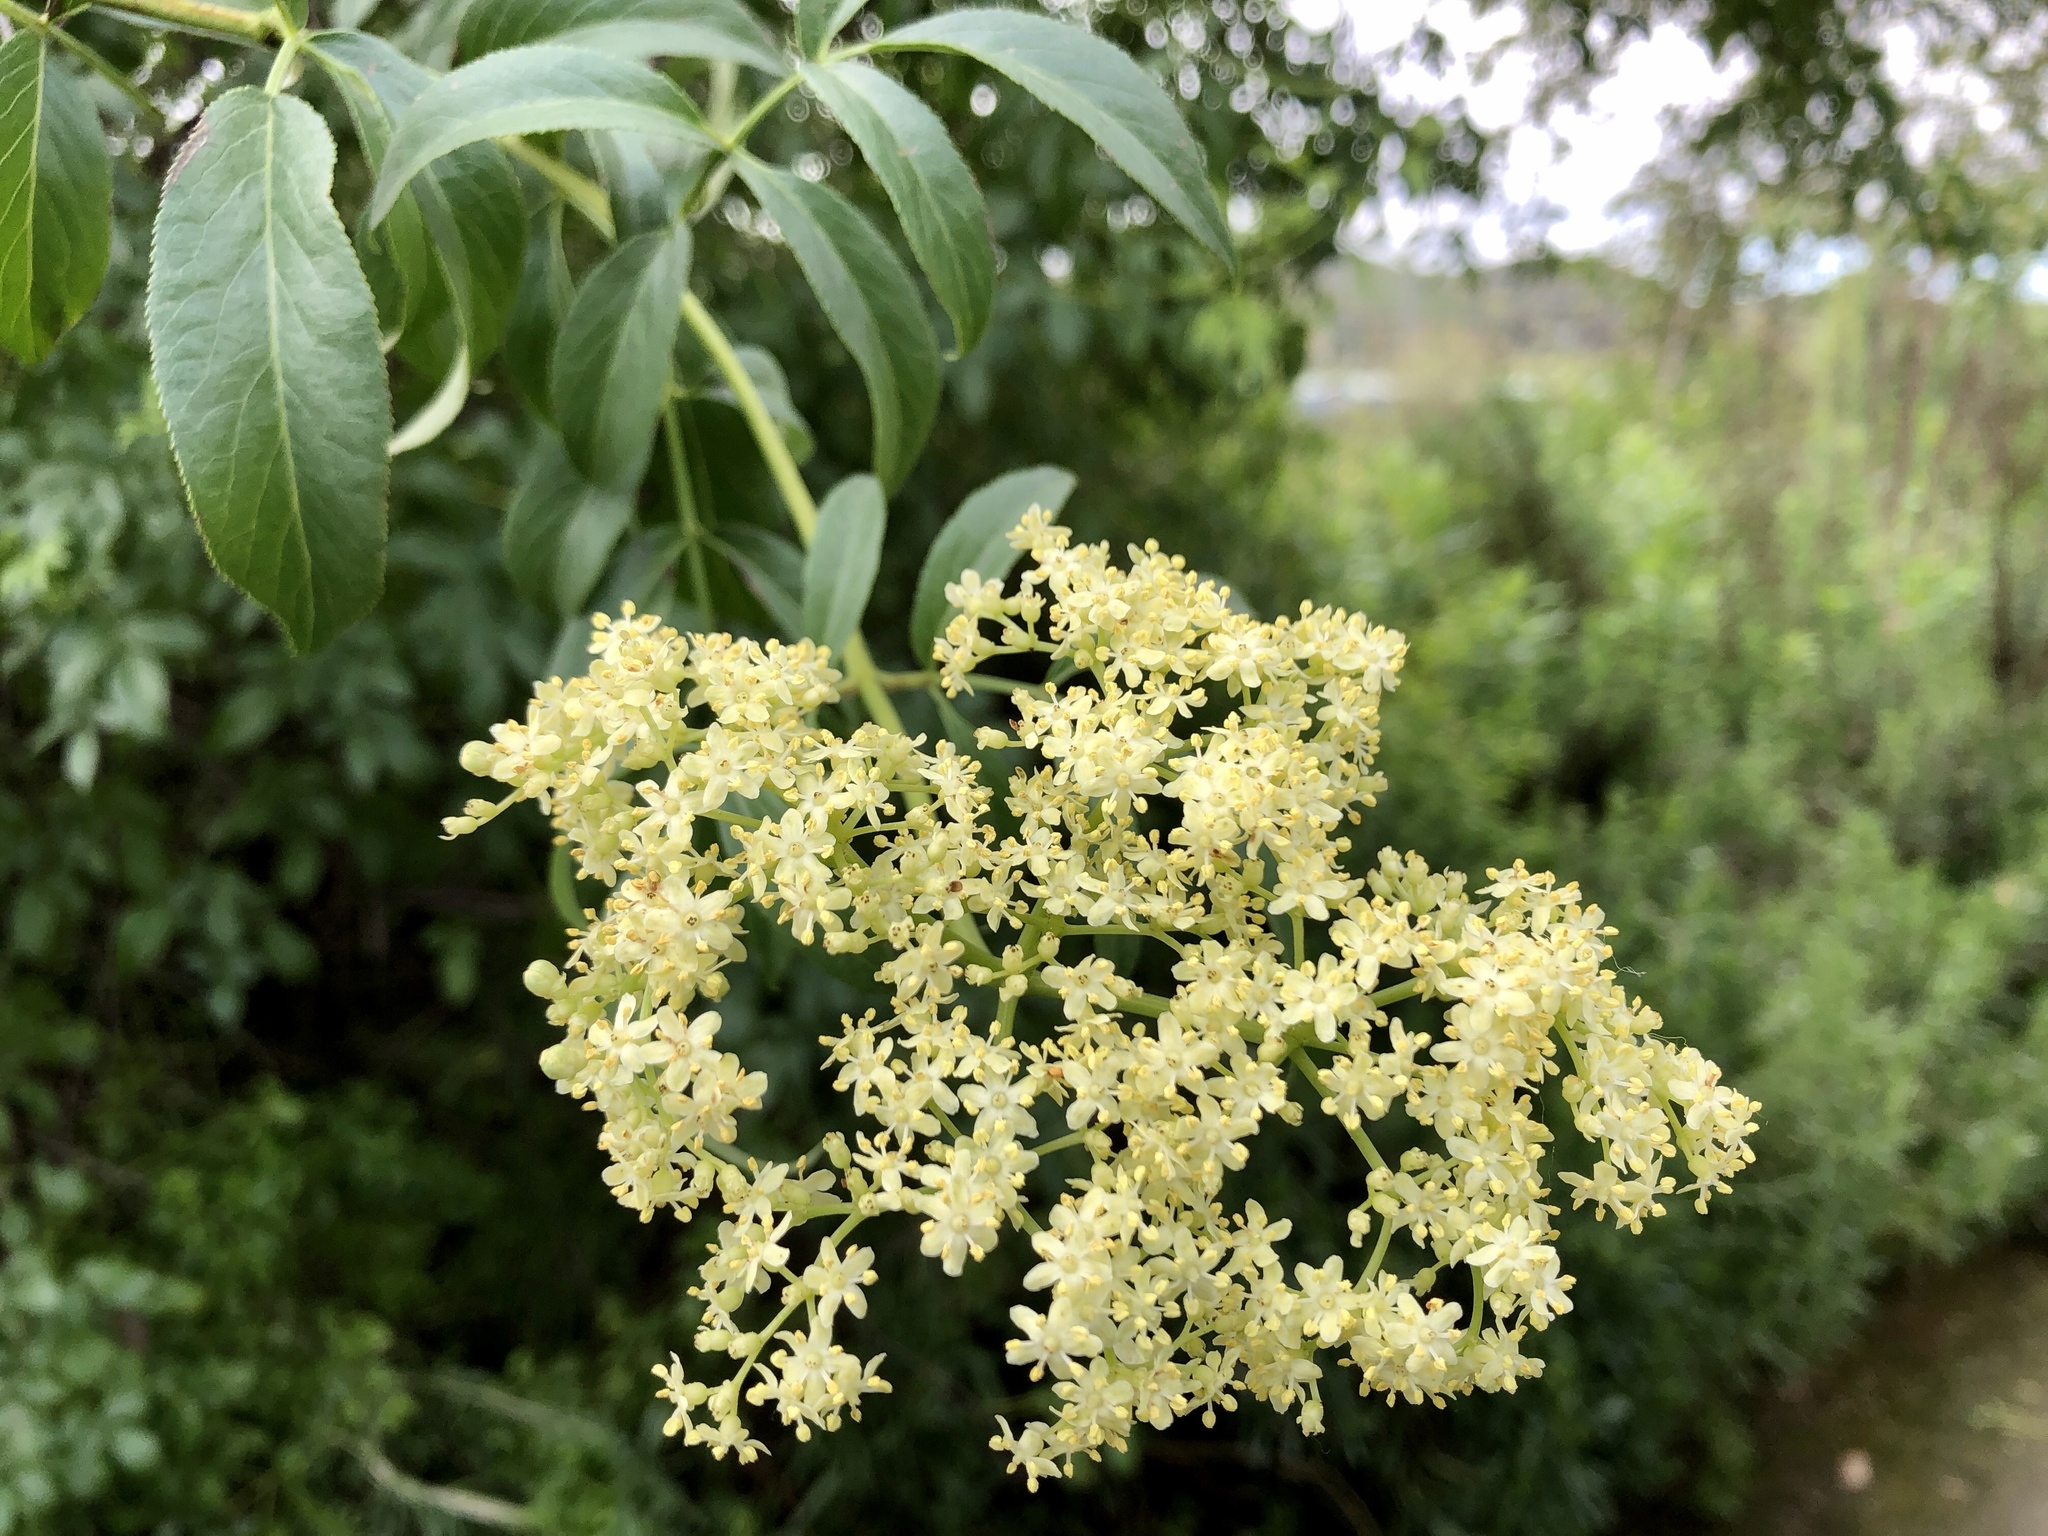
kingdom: Plantae
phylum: Tracheophyta
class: Magnoliopsida
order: Dipsacales
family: Viburnaceae
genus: Sambucus
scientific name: Sambucus cerulea
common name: Blue elder
